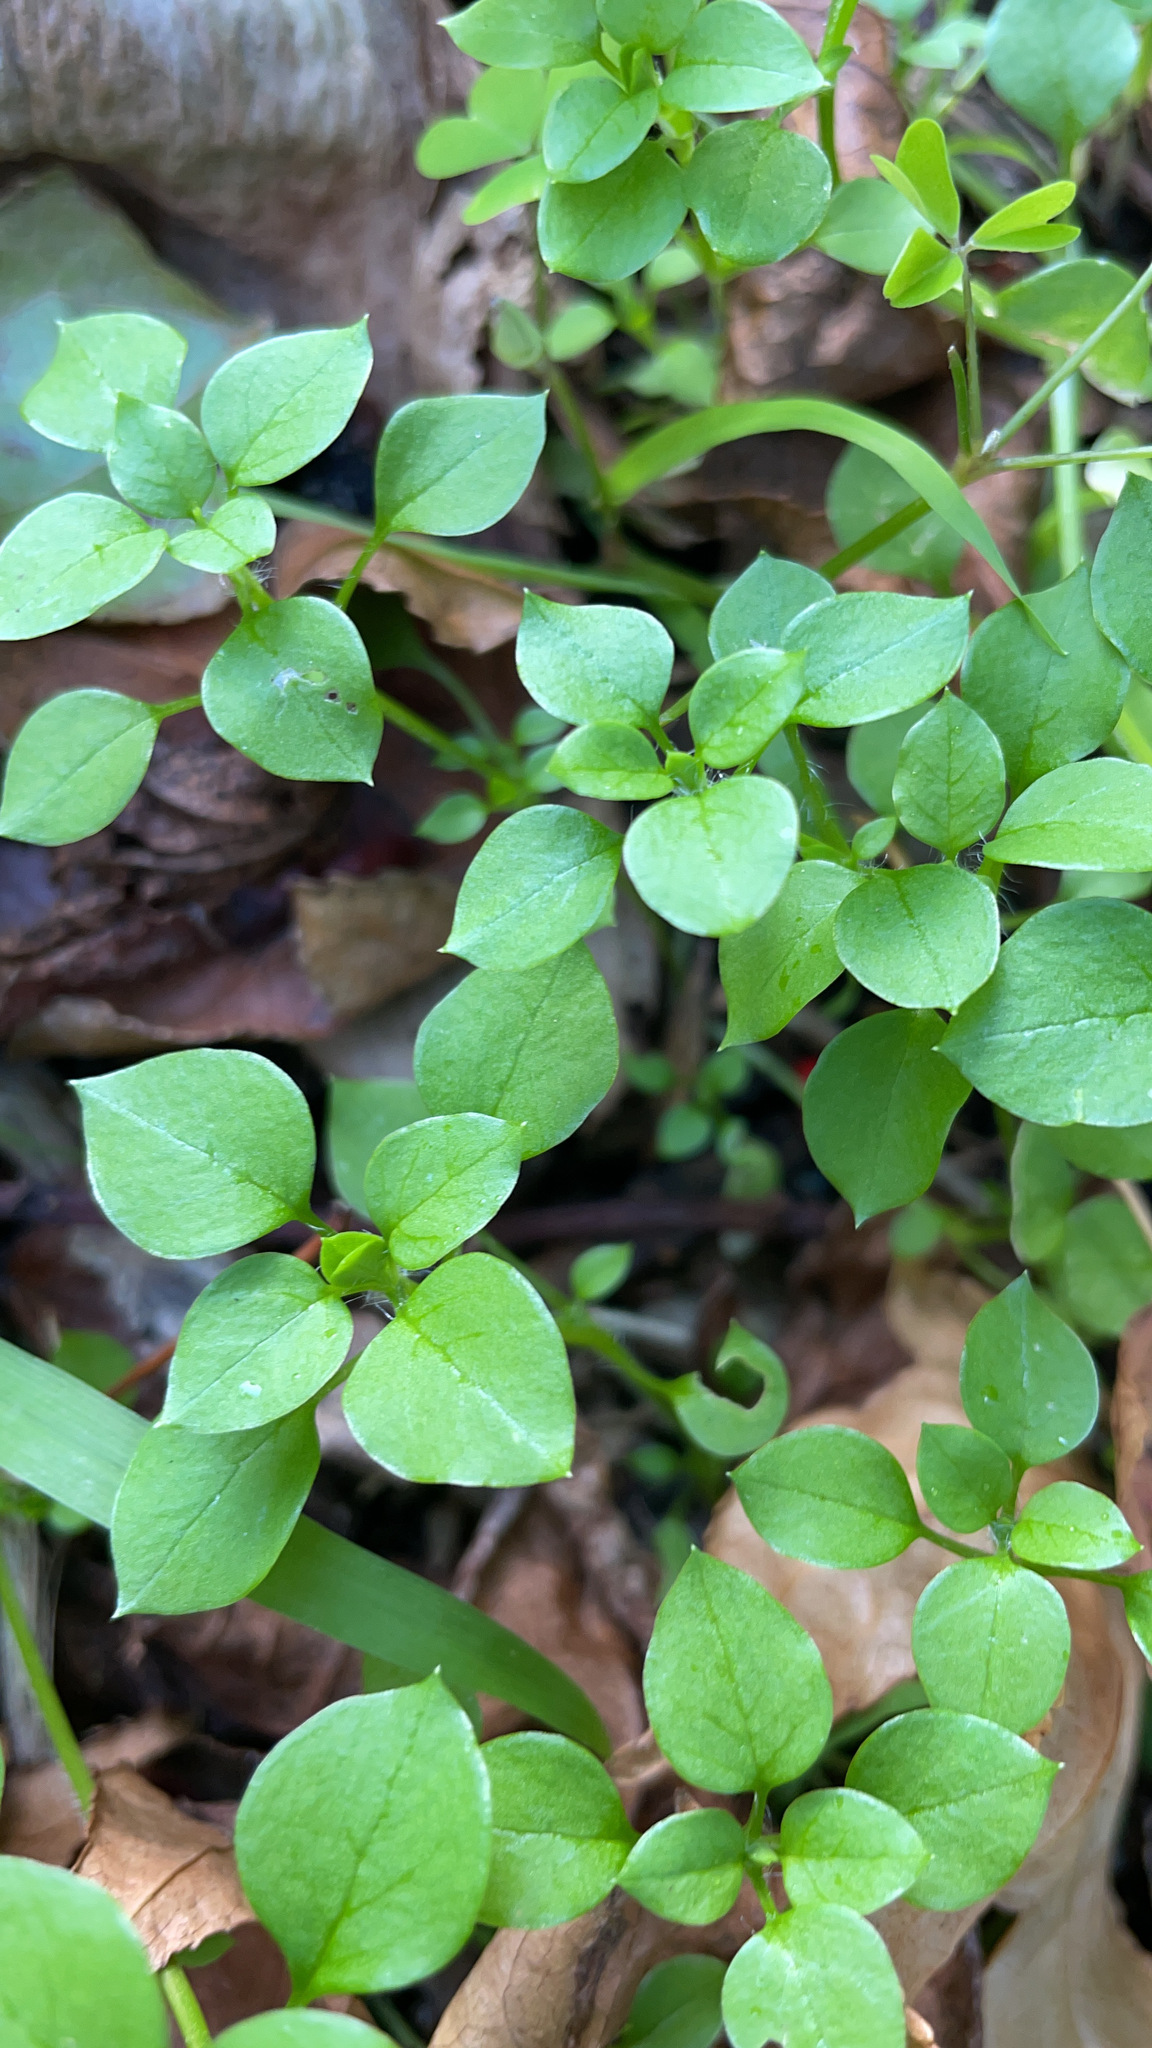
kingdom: Plantae
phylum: Tracheophyta
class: Magnoliopsida
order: Caryophyllales
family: Caryophyllaceae
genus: Stellaria
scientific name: Stellaria media
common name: Common chickweed
